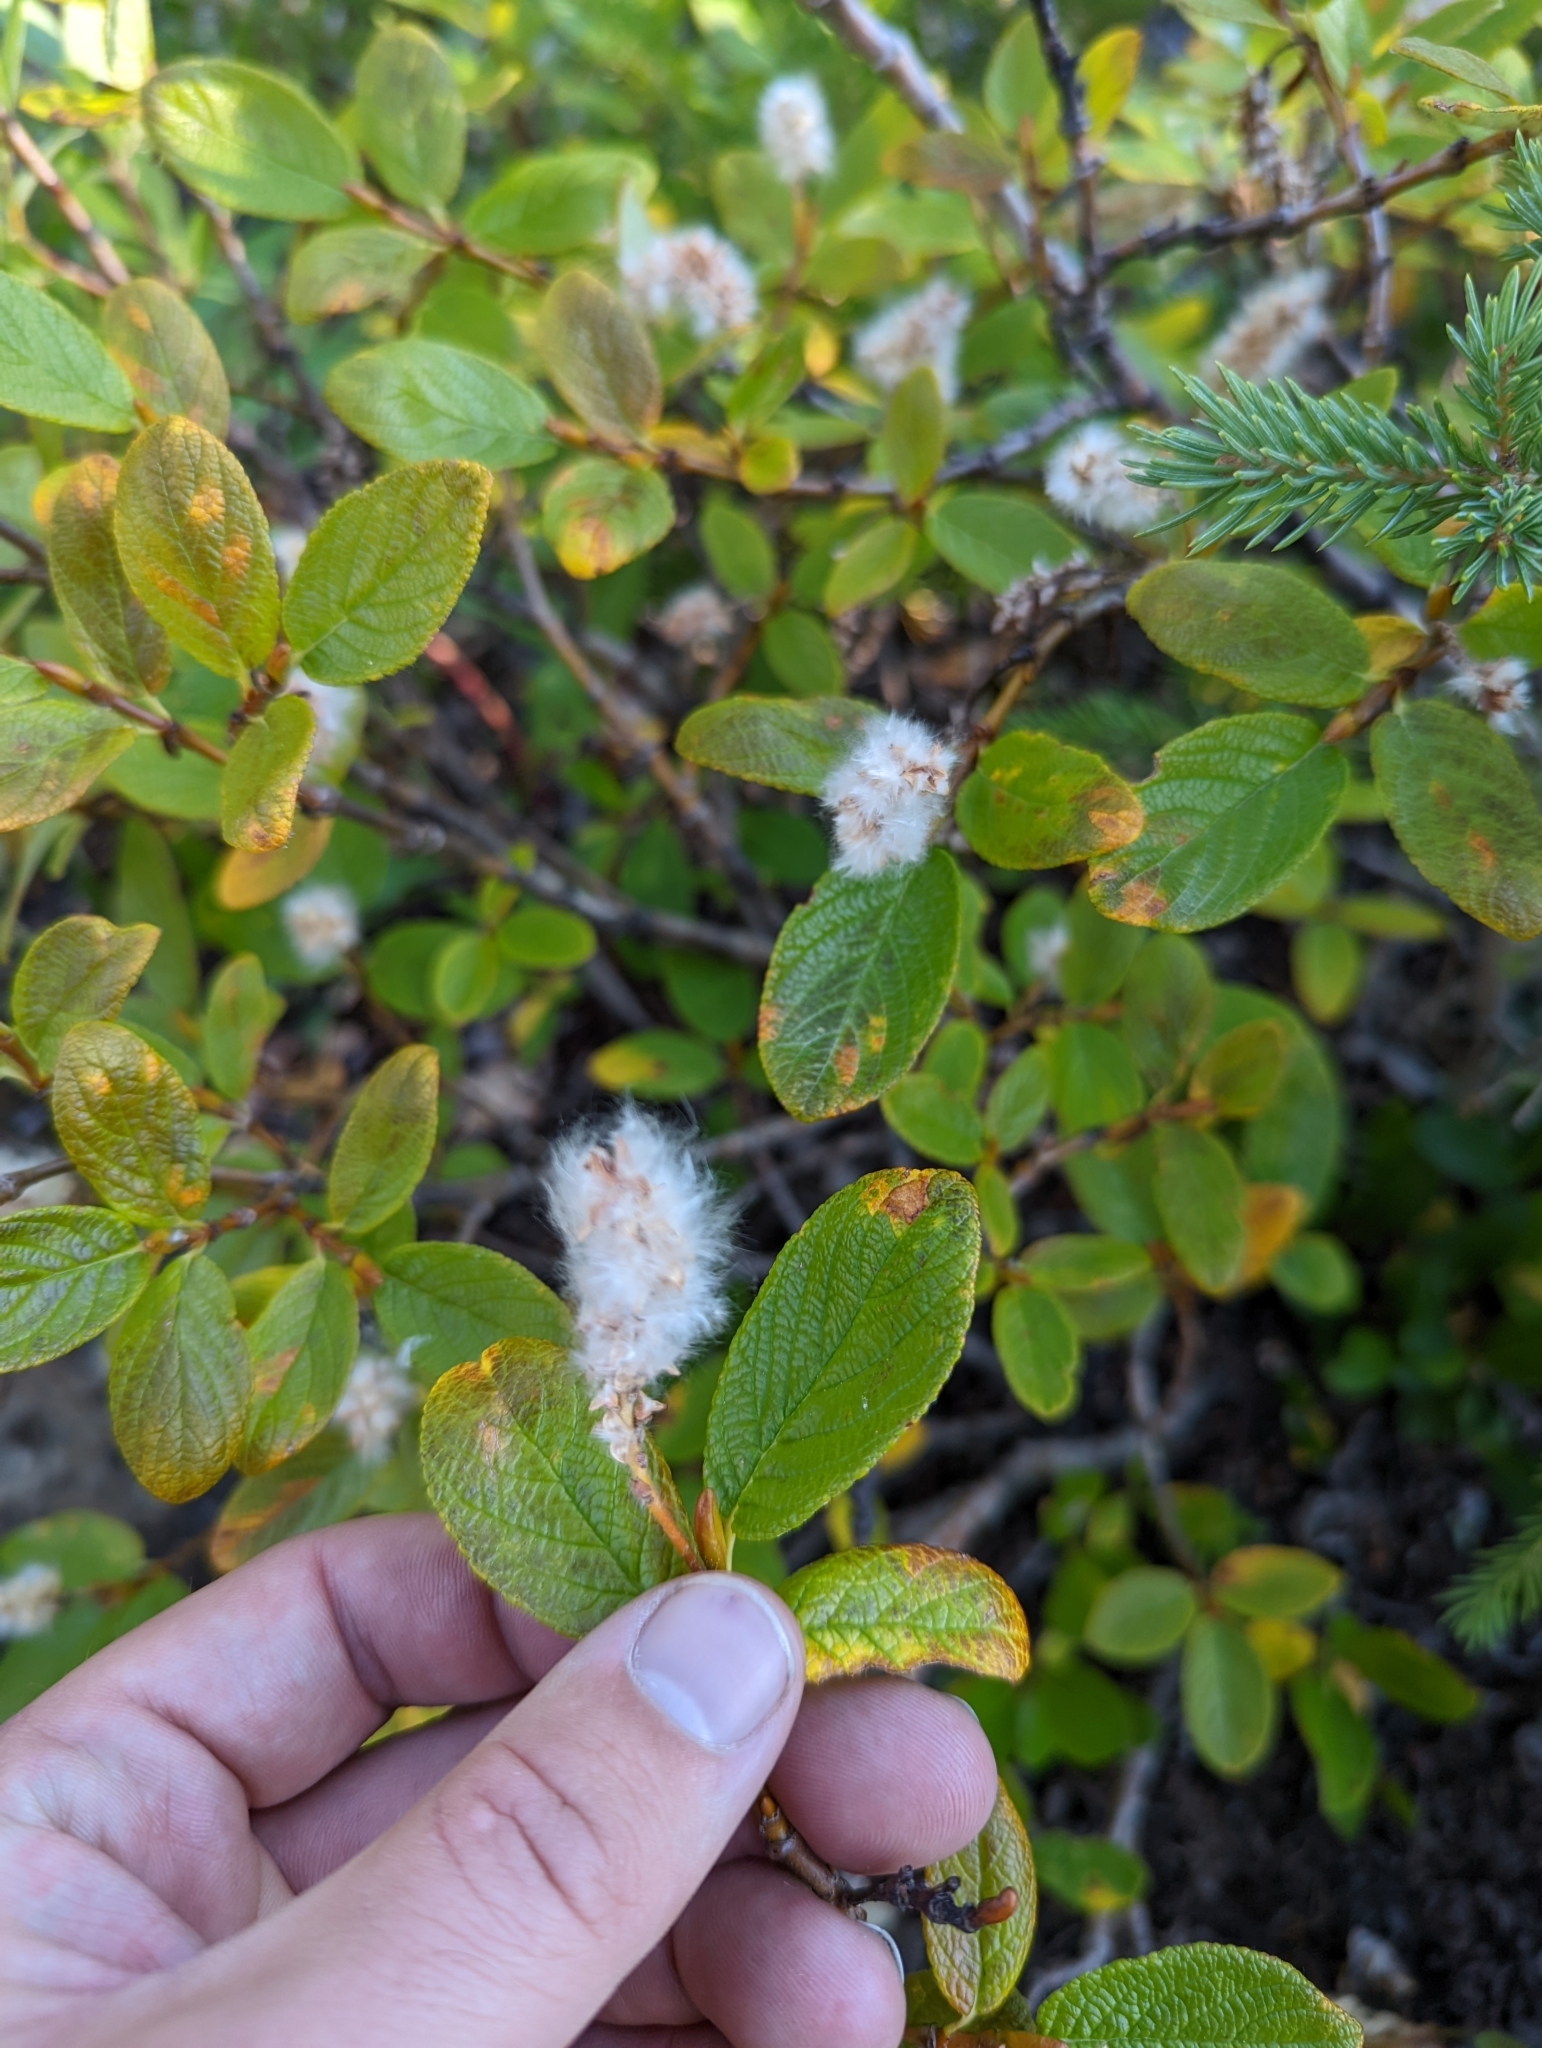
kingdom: Plantae
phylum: Tracheophyta
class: Magnoliopsida
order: Malpighiales
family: Salicaceae
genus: Salix
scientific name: Salix vestita
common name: Hairy willow
